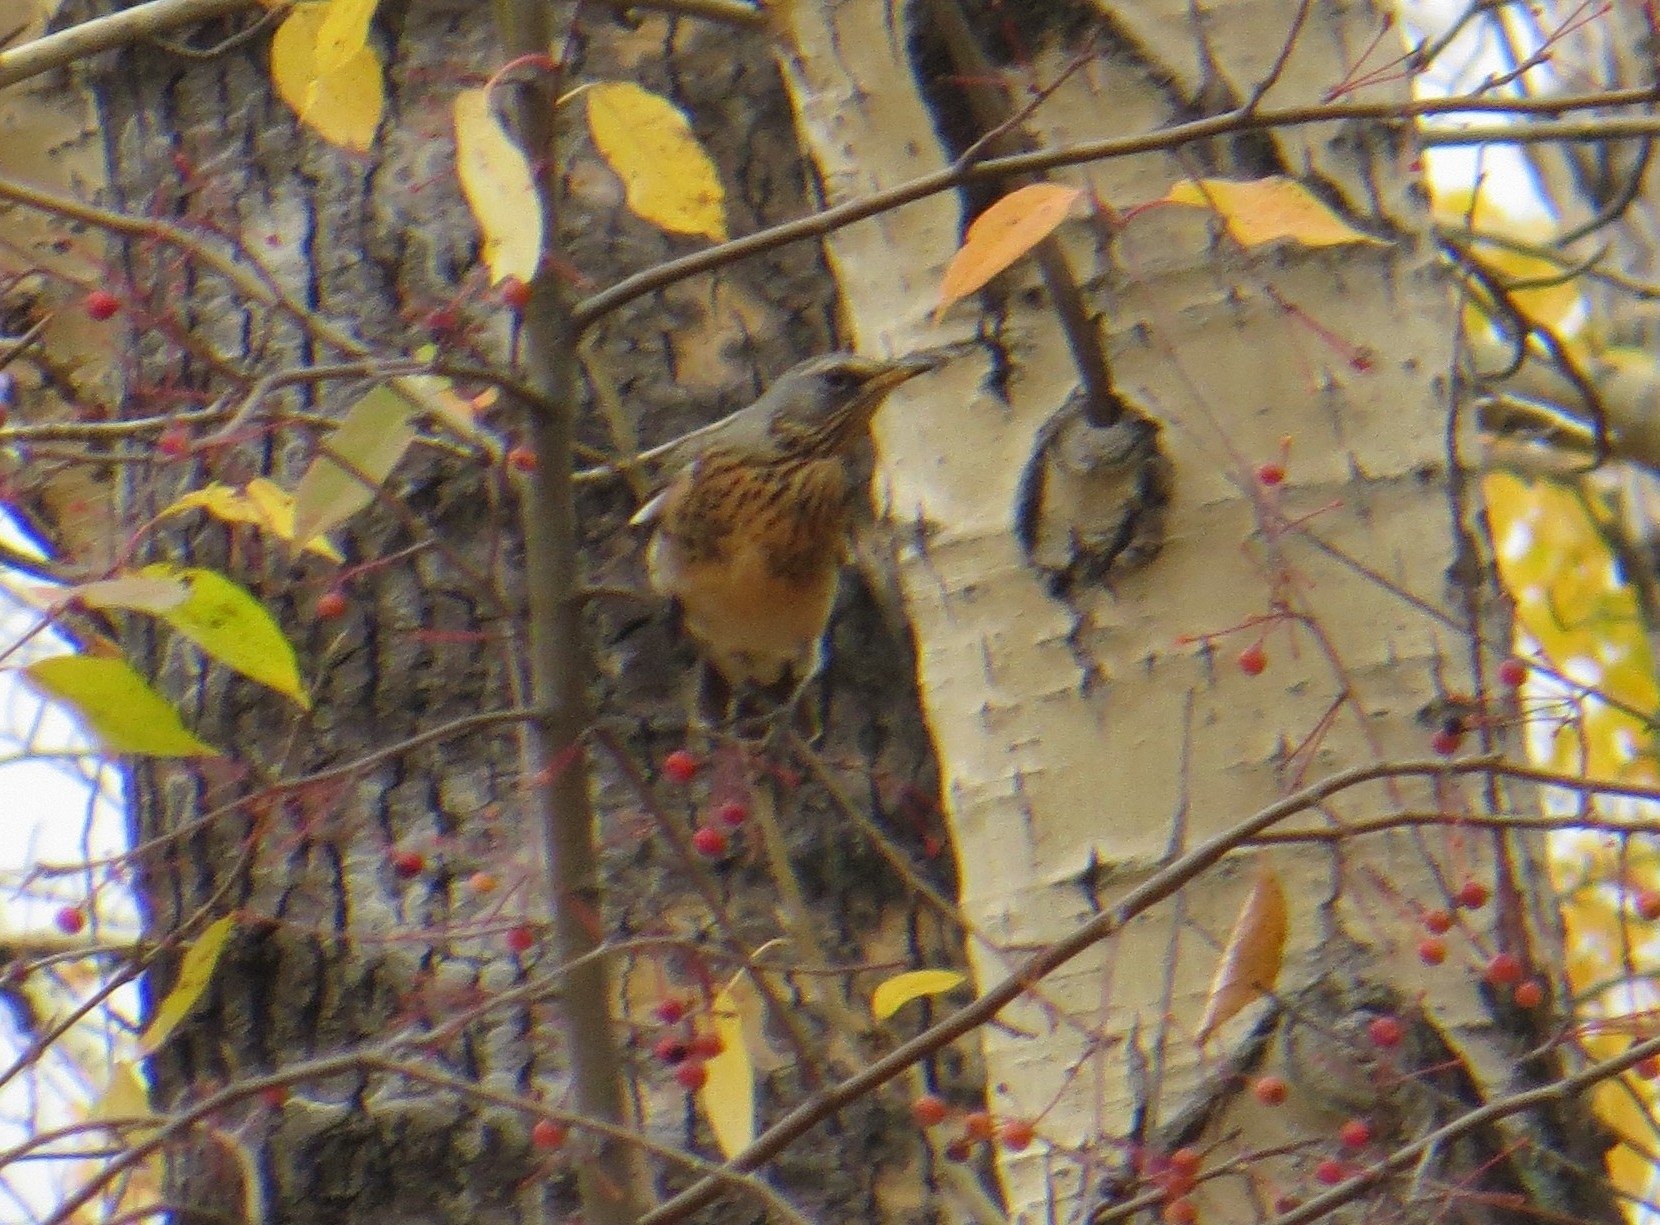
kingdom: Animalia
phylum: Chordata
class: Aves
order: Passeriformes
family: Turdidae
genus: Turdus
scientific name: Turdus pilaris
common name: Fieldfare
